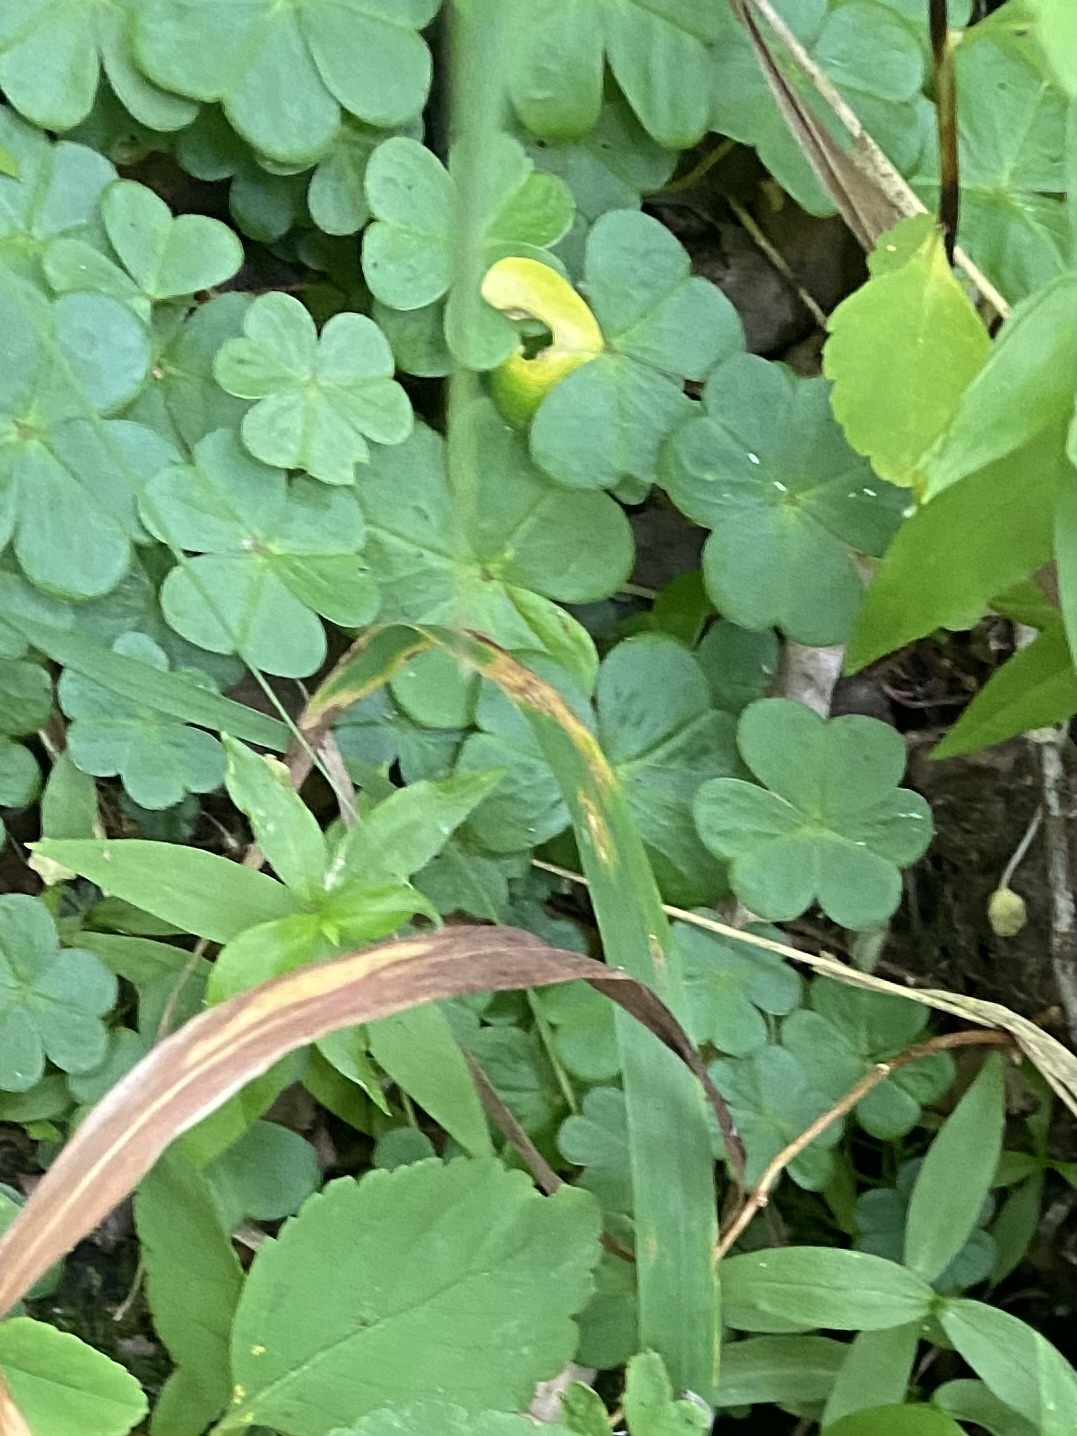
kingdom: Plantae
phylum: Tracheophyta
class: Magnoliopsida
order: Oxalidales
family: Oxalidaceae
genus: Oxalis
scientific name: Oxalis acetosella
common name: Wood-sorrel
